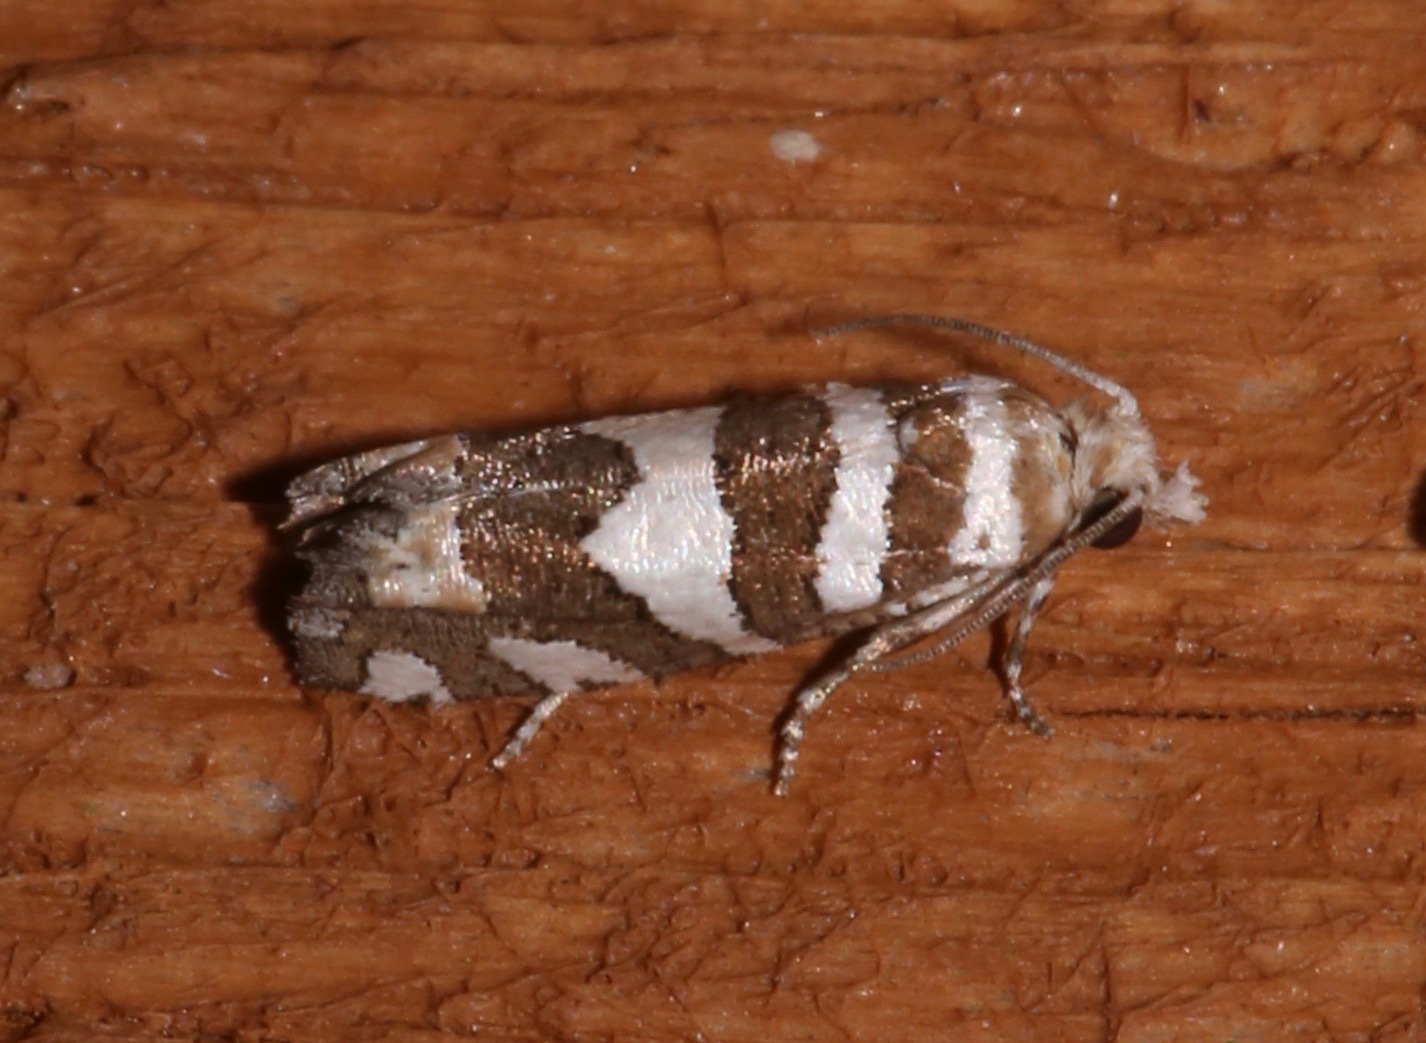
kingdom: Animalia
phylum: Arthropoda
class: Insecta
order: Lepidoptera
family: Tortricidae
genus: Pelochrista
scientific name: Pelochrista robinsonana
